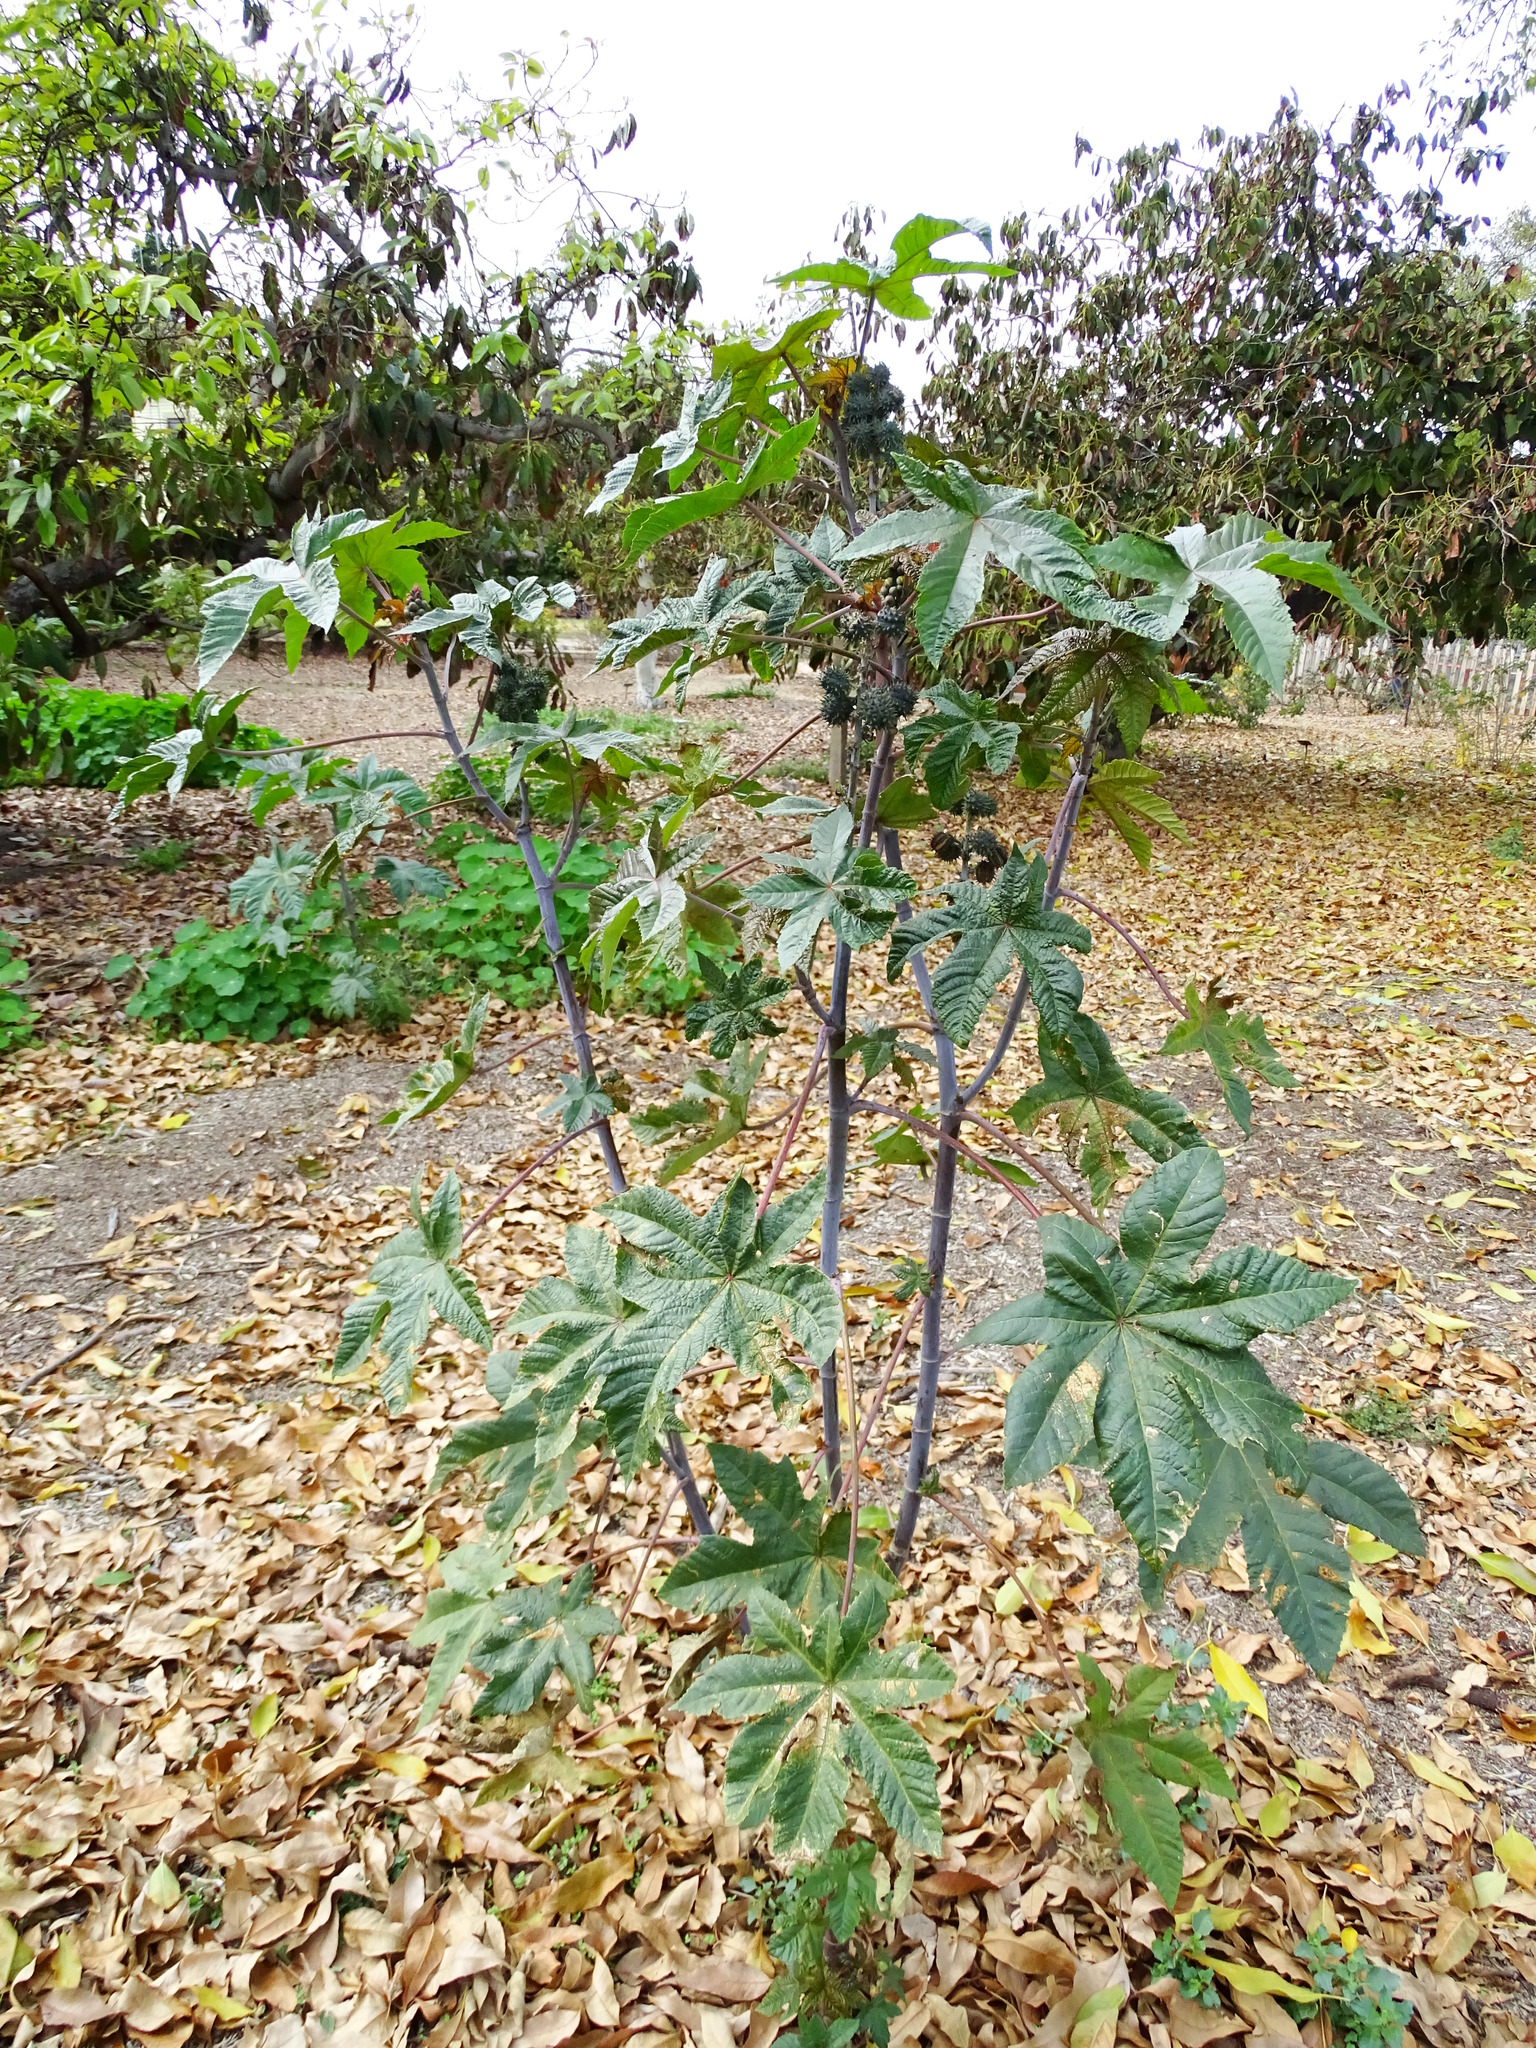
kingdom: Plantae
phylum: Tracheophyta
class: Magnoliopsida
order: Malpighiales
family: Euphorbiaceae
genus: Ricinus
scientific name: Ricinus communis
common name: Castor-oil-plant
